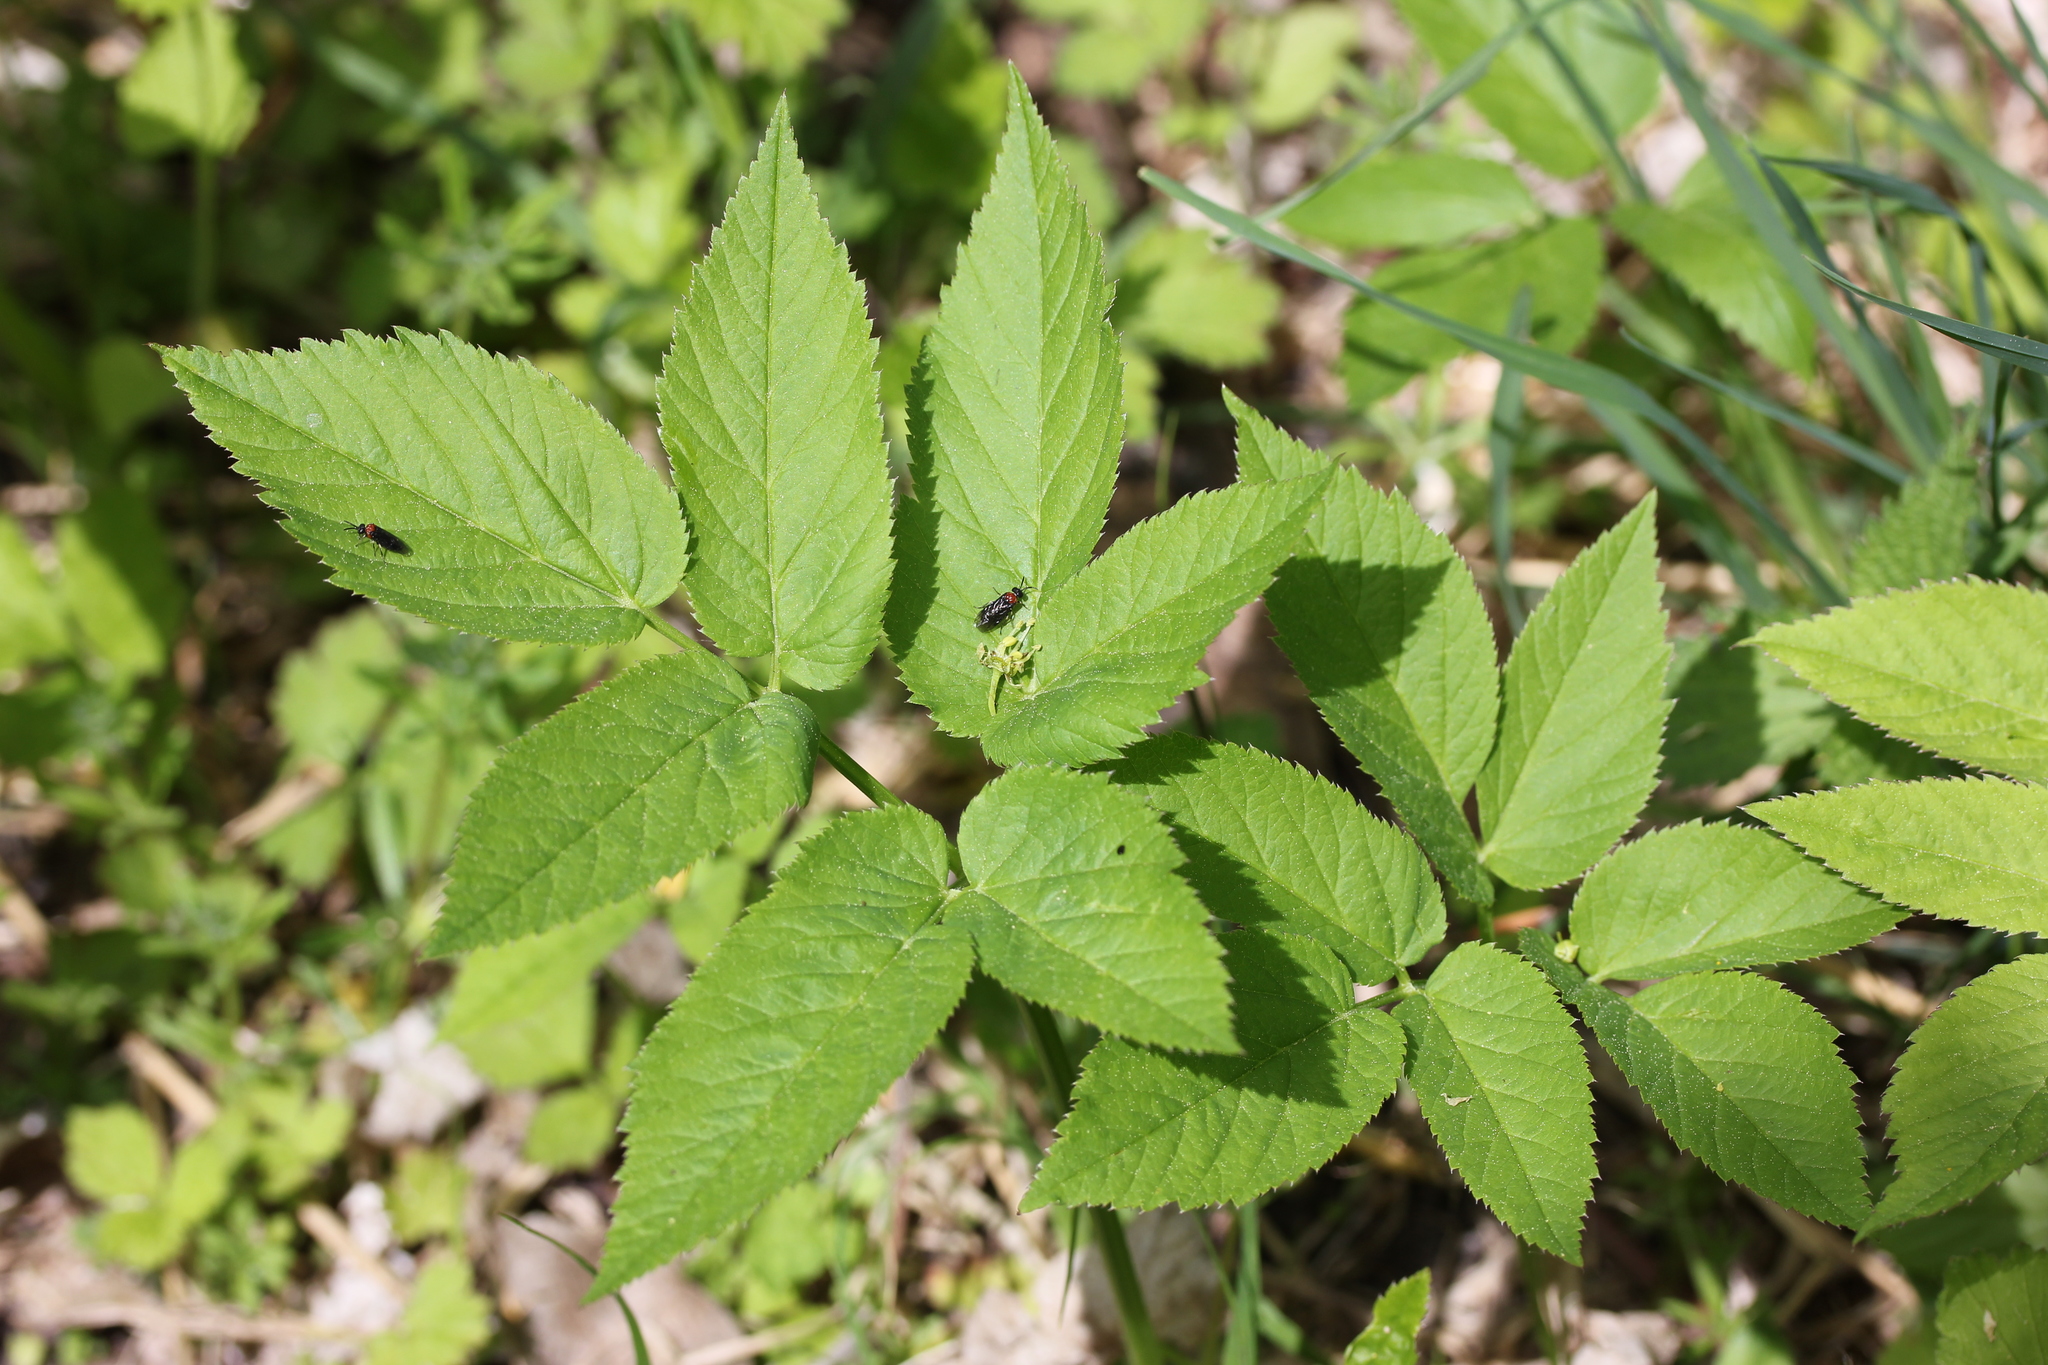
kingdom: Plantae
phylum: Tracheophyta
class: Magnoliopsida
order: Apiales
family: Apiaceae
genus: Aegopodium
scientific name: Aegopodium podagraria
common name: Ground-elder
